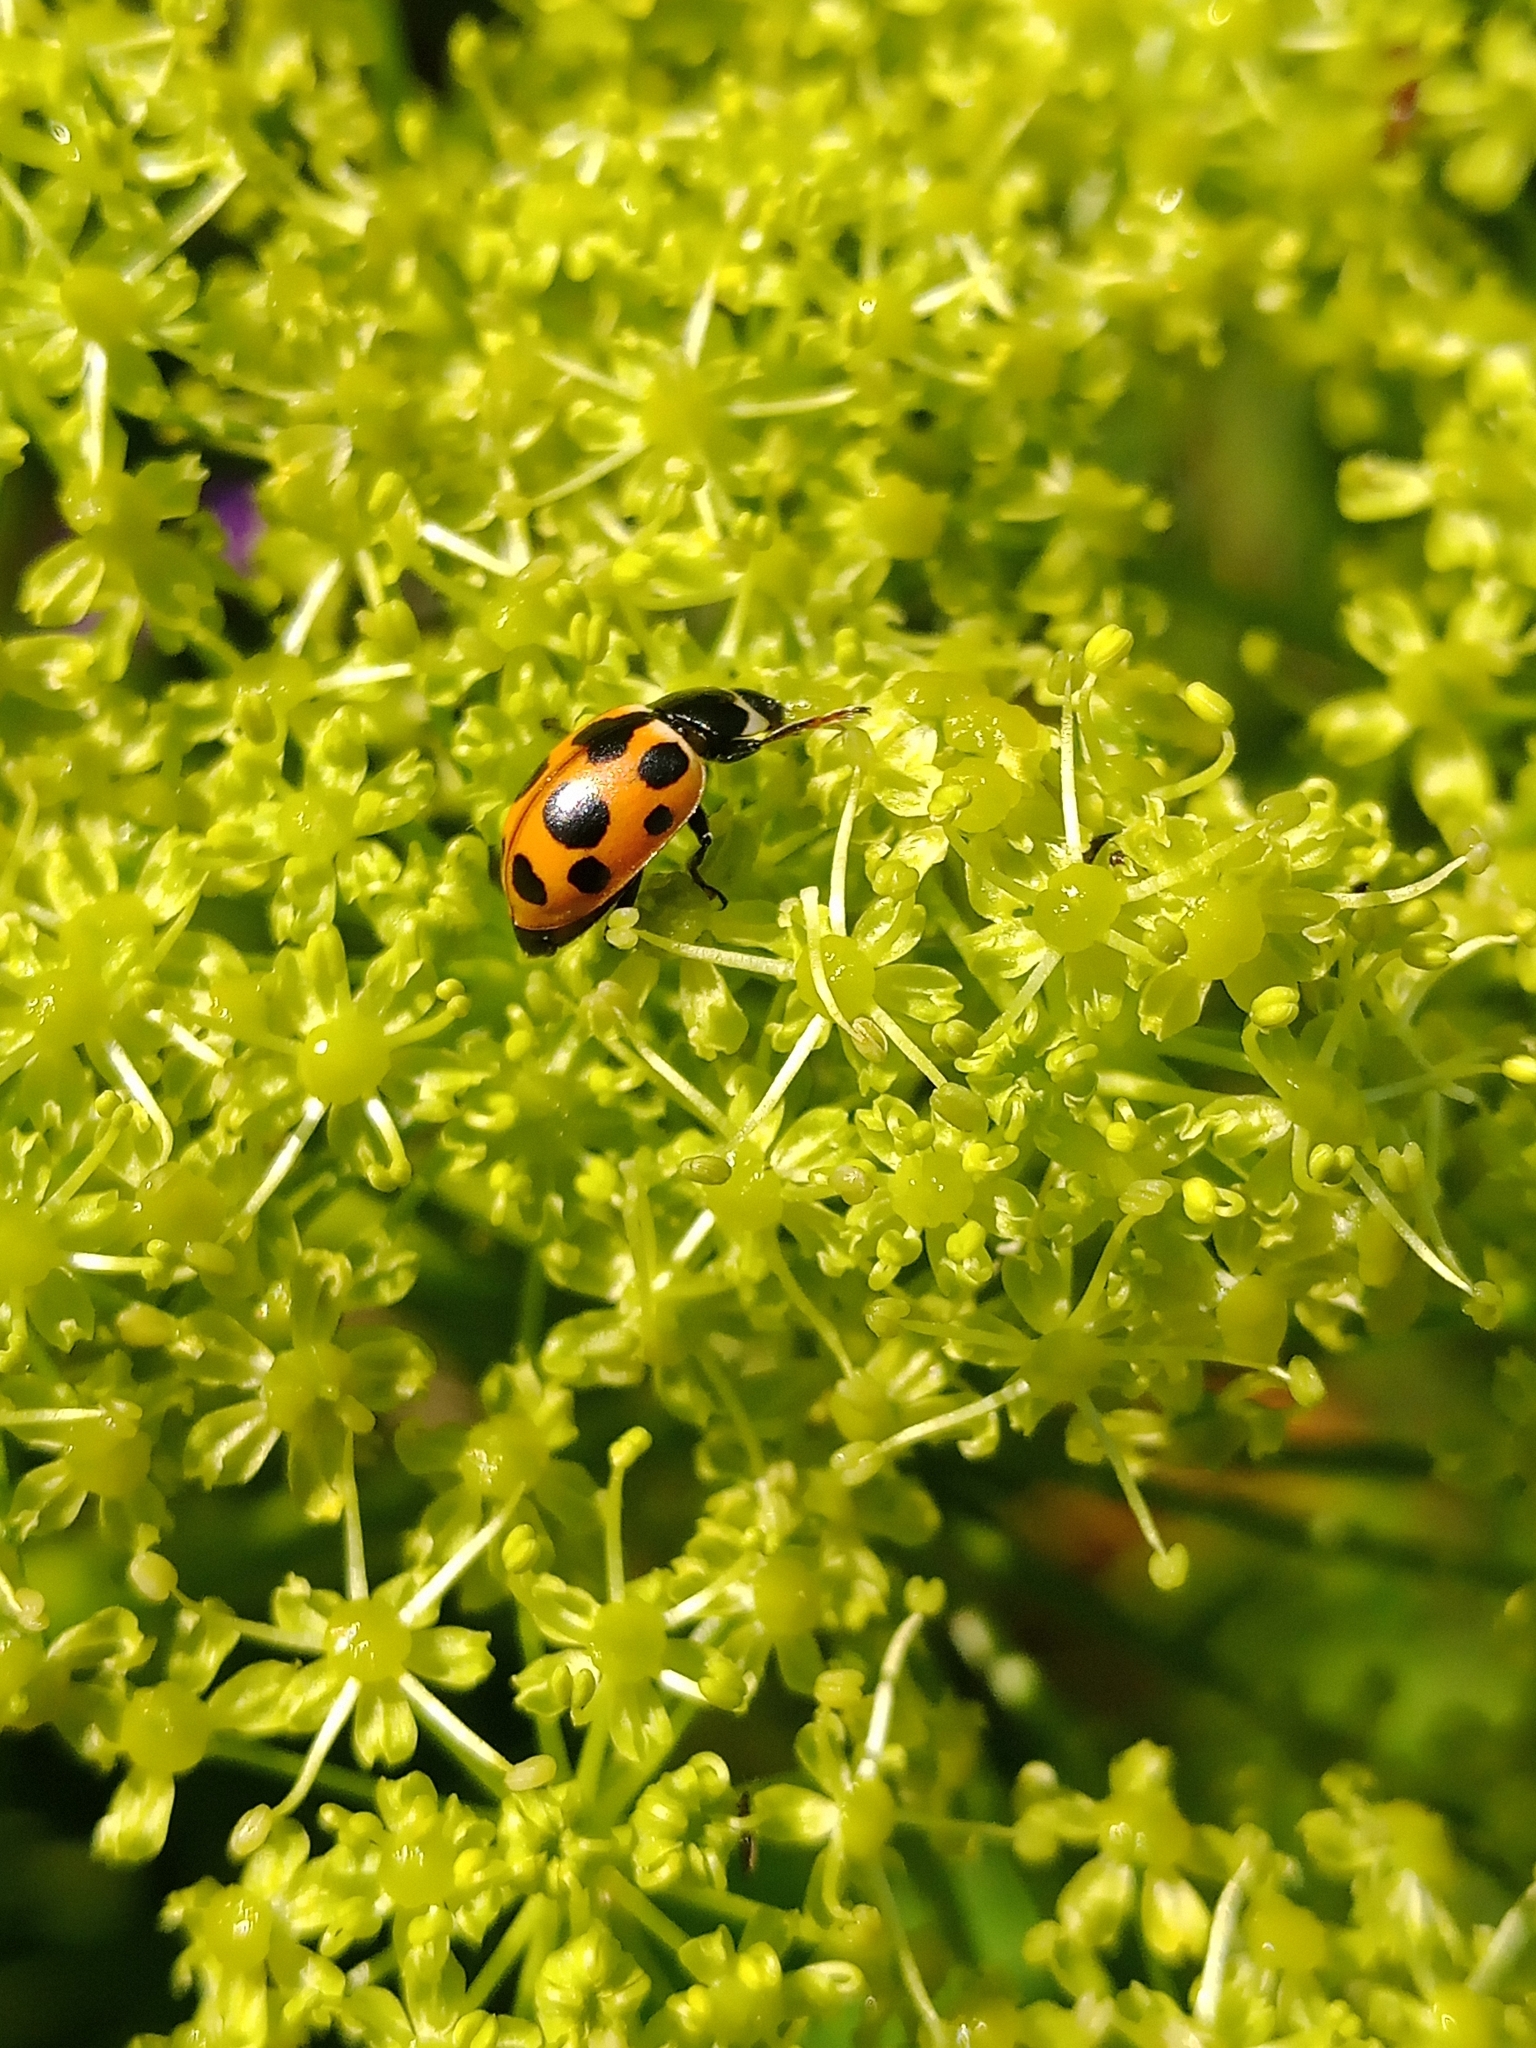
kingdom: Animalia
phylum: Arthropoda
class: Insecta
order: Coleoptera
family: Coccinellidae
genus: Ceratomegilla
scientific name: Ceratomegilla notata
